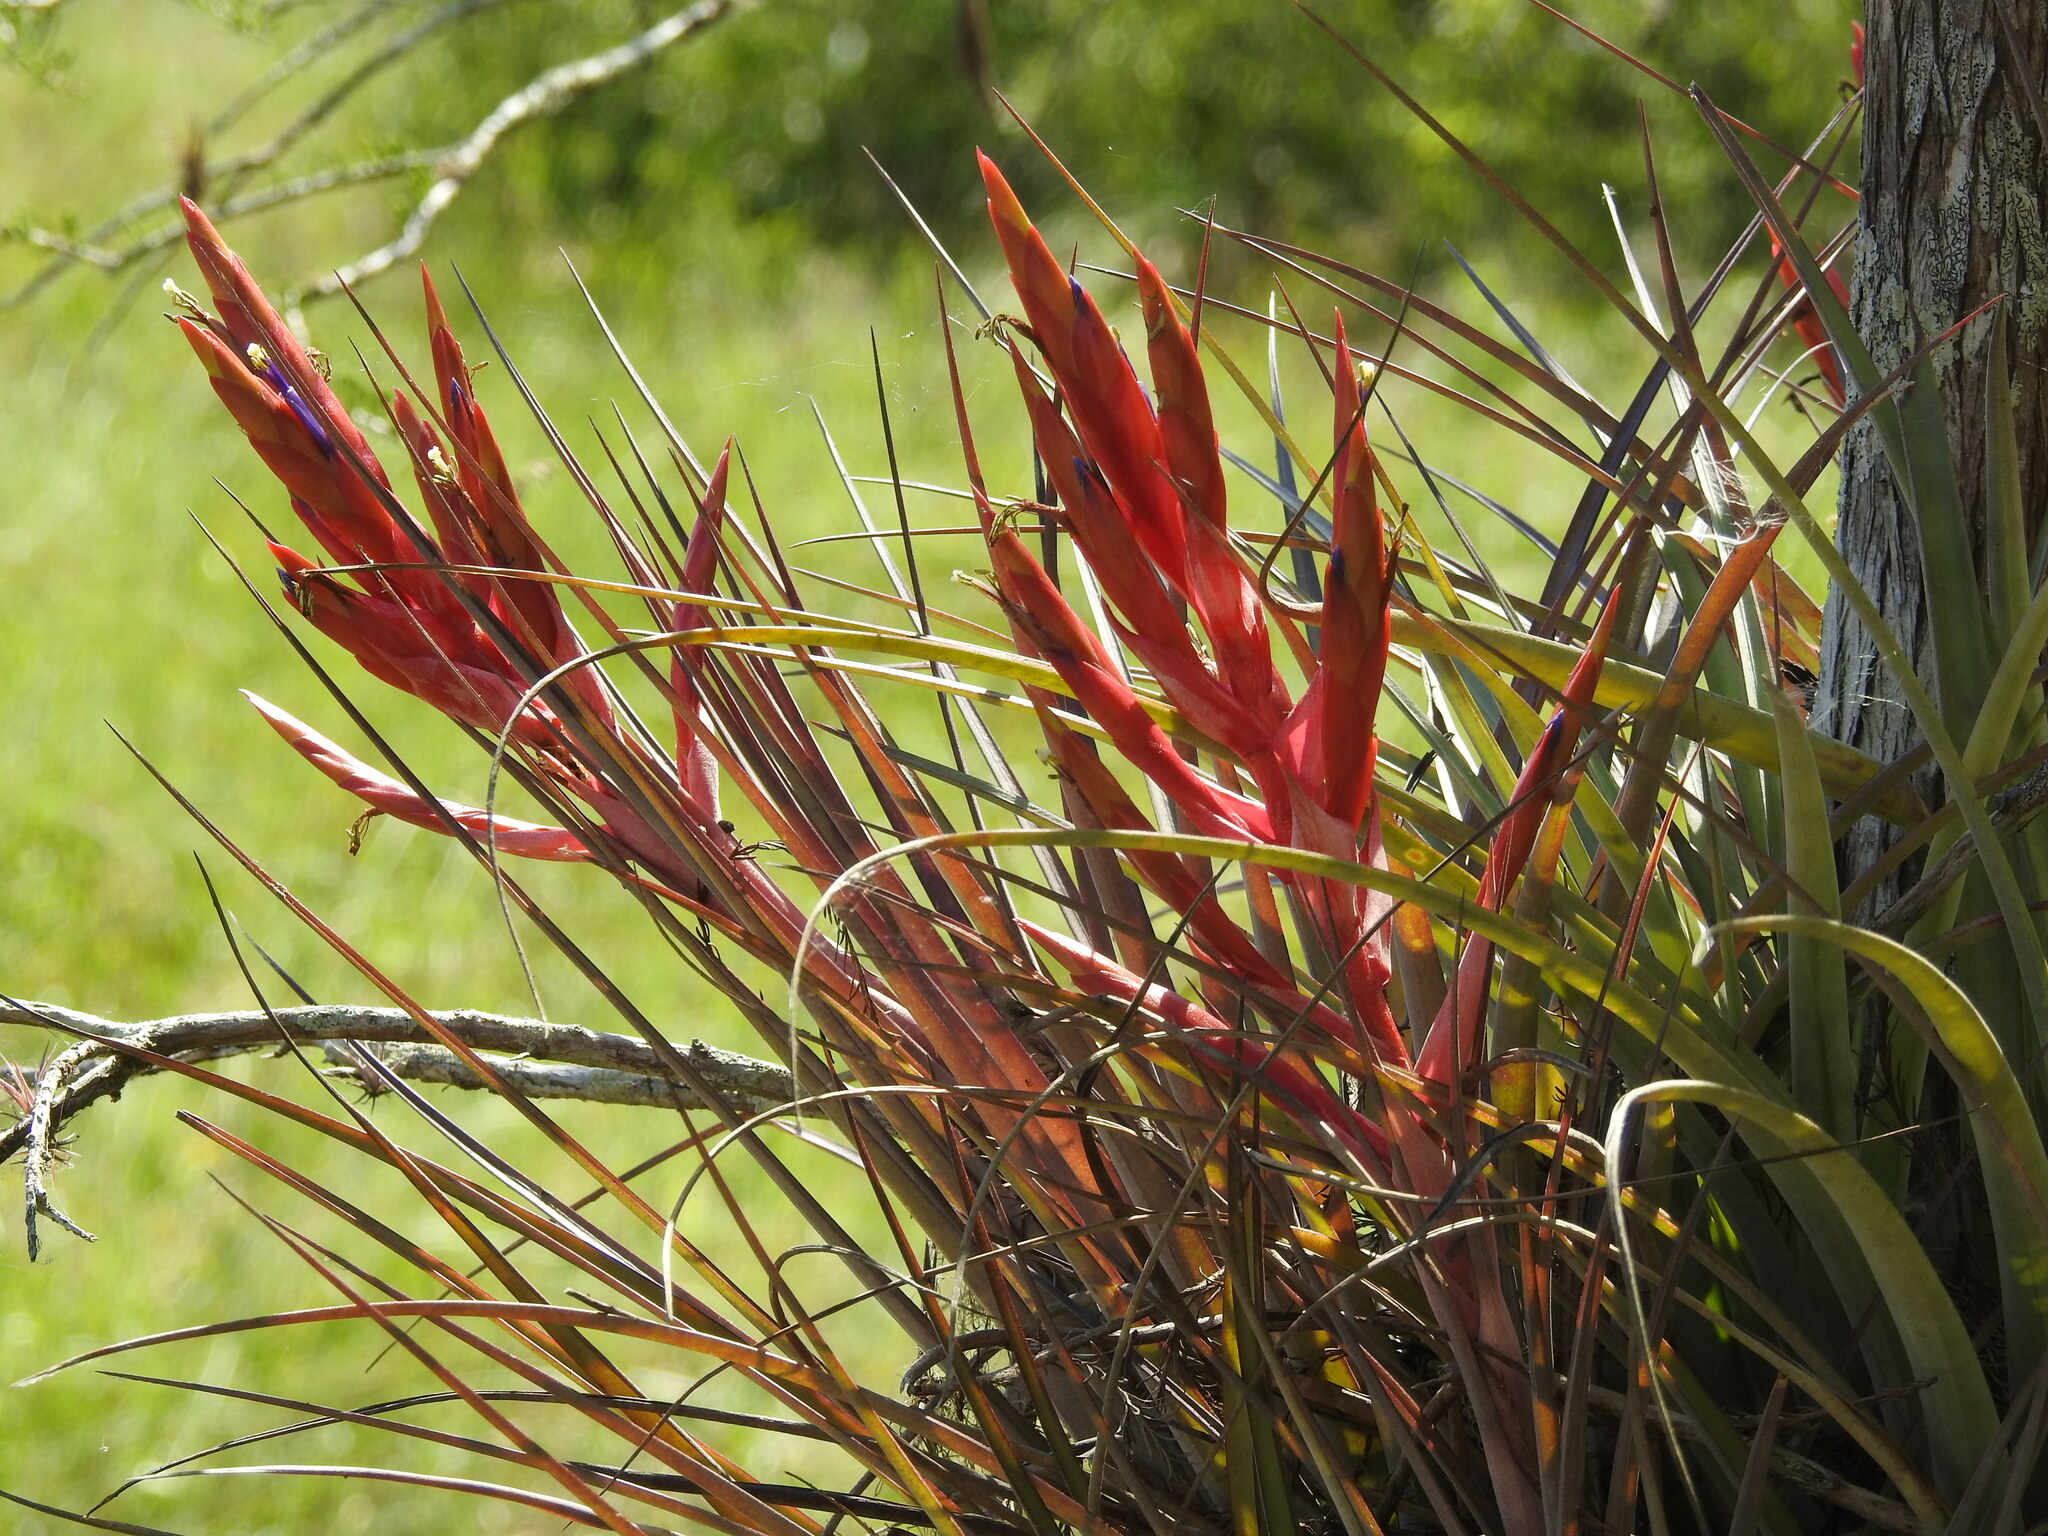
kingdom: Plantae
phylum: Tracheophyta
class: Liliopsida
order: Poales
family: Bromeliaceae
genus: Tillandsia
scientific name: Tillandsia fasciculata
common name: Giant airplant
